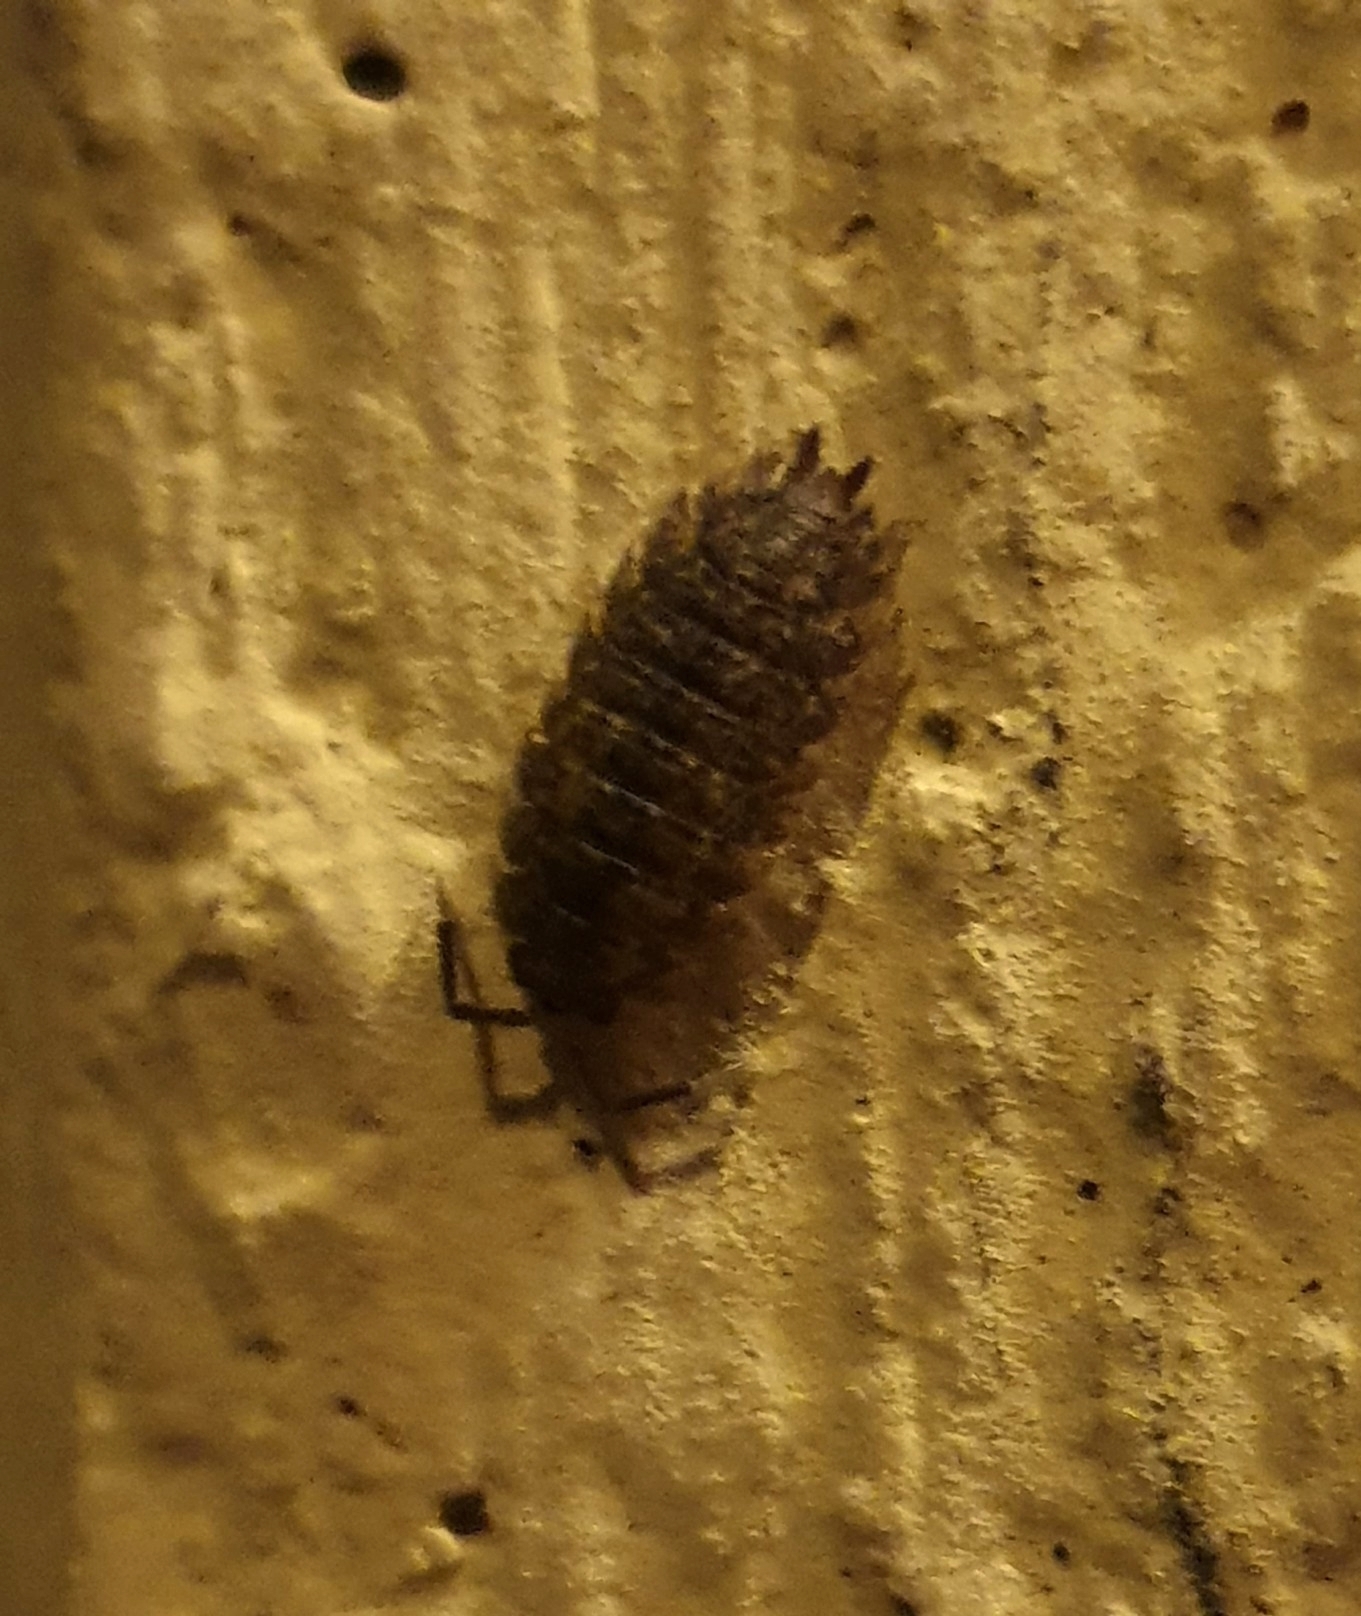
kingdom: Animalia
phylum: Arthropoda
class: Malacostraca
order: Isopoda
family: Oniscidae
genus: Oniscus
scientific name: Oniscus asellus
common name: Common shiny woodlouse
